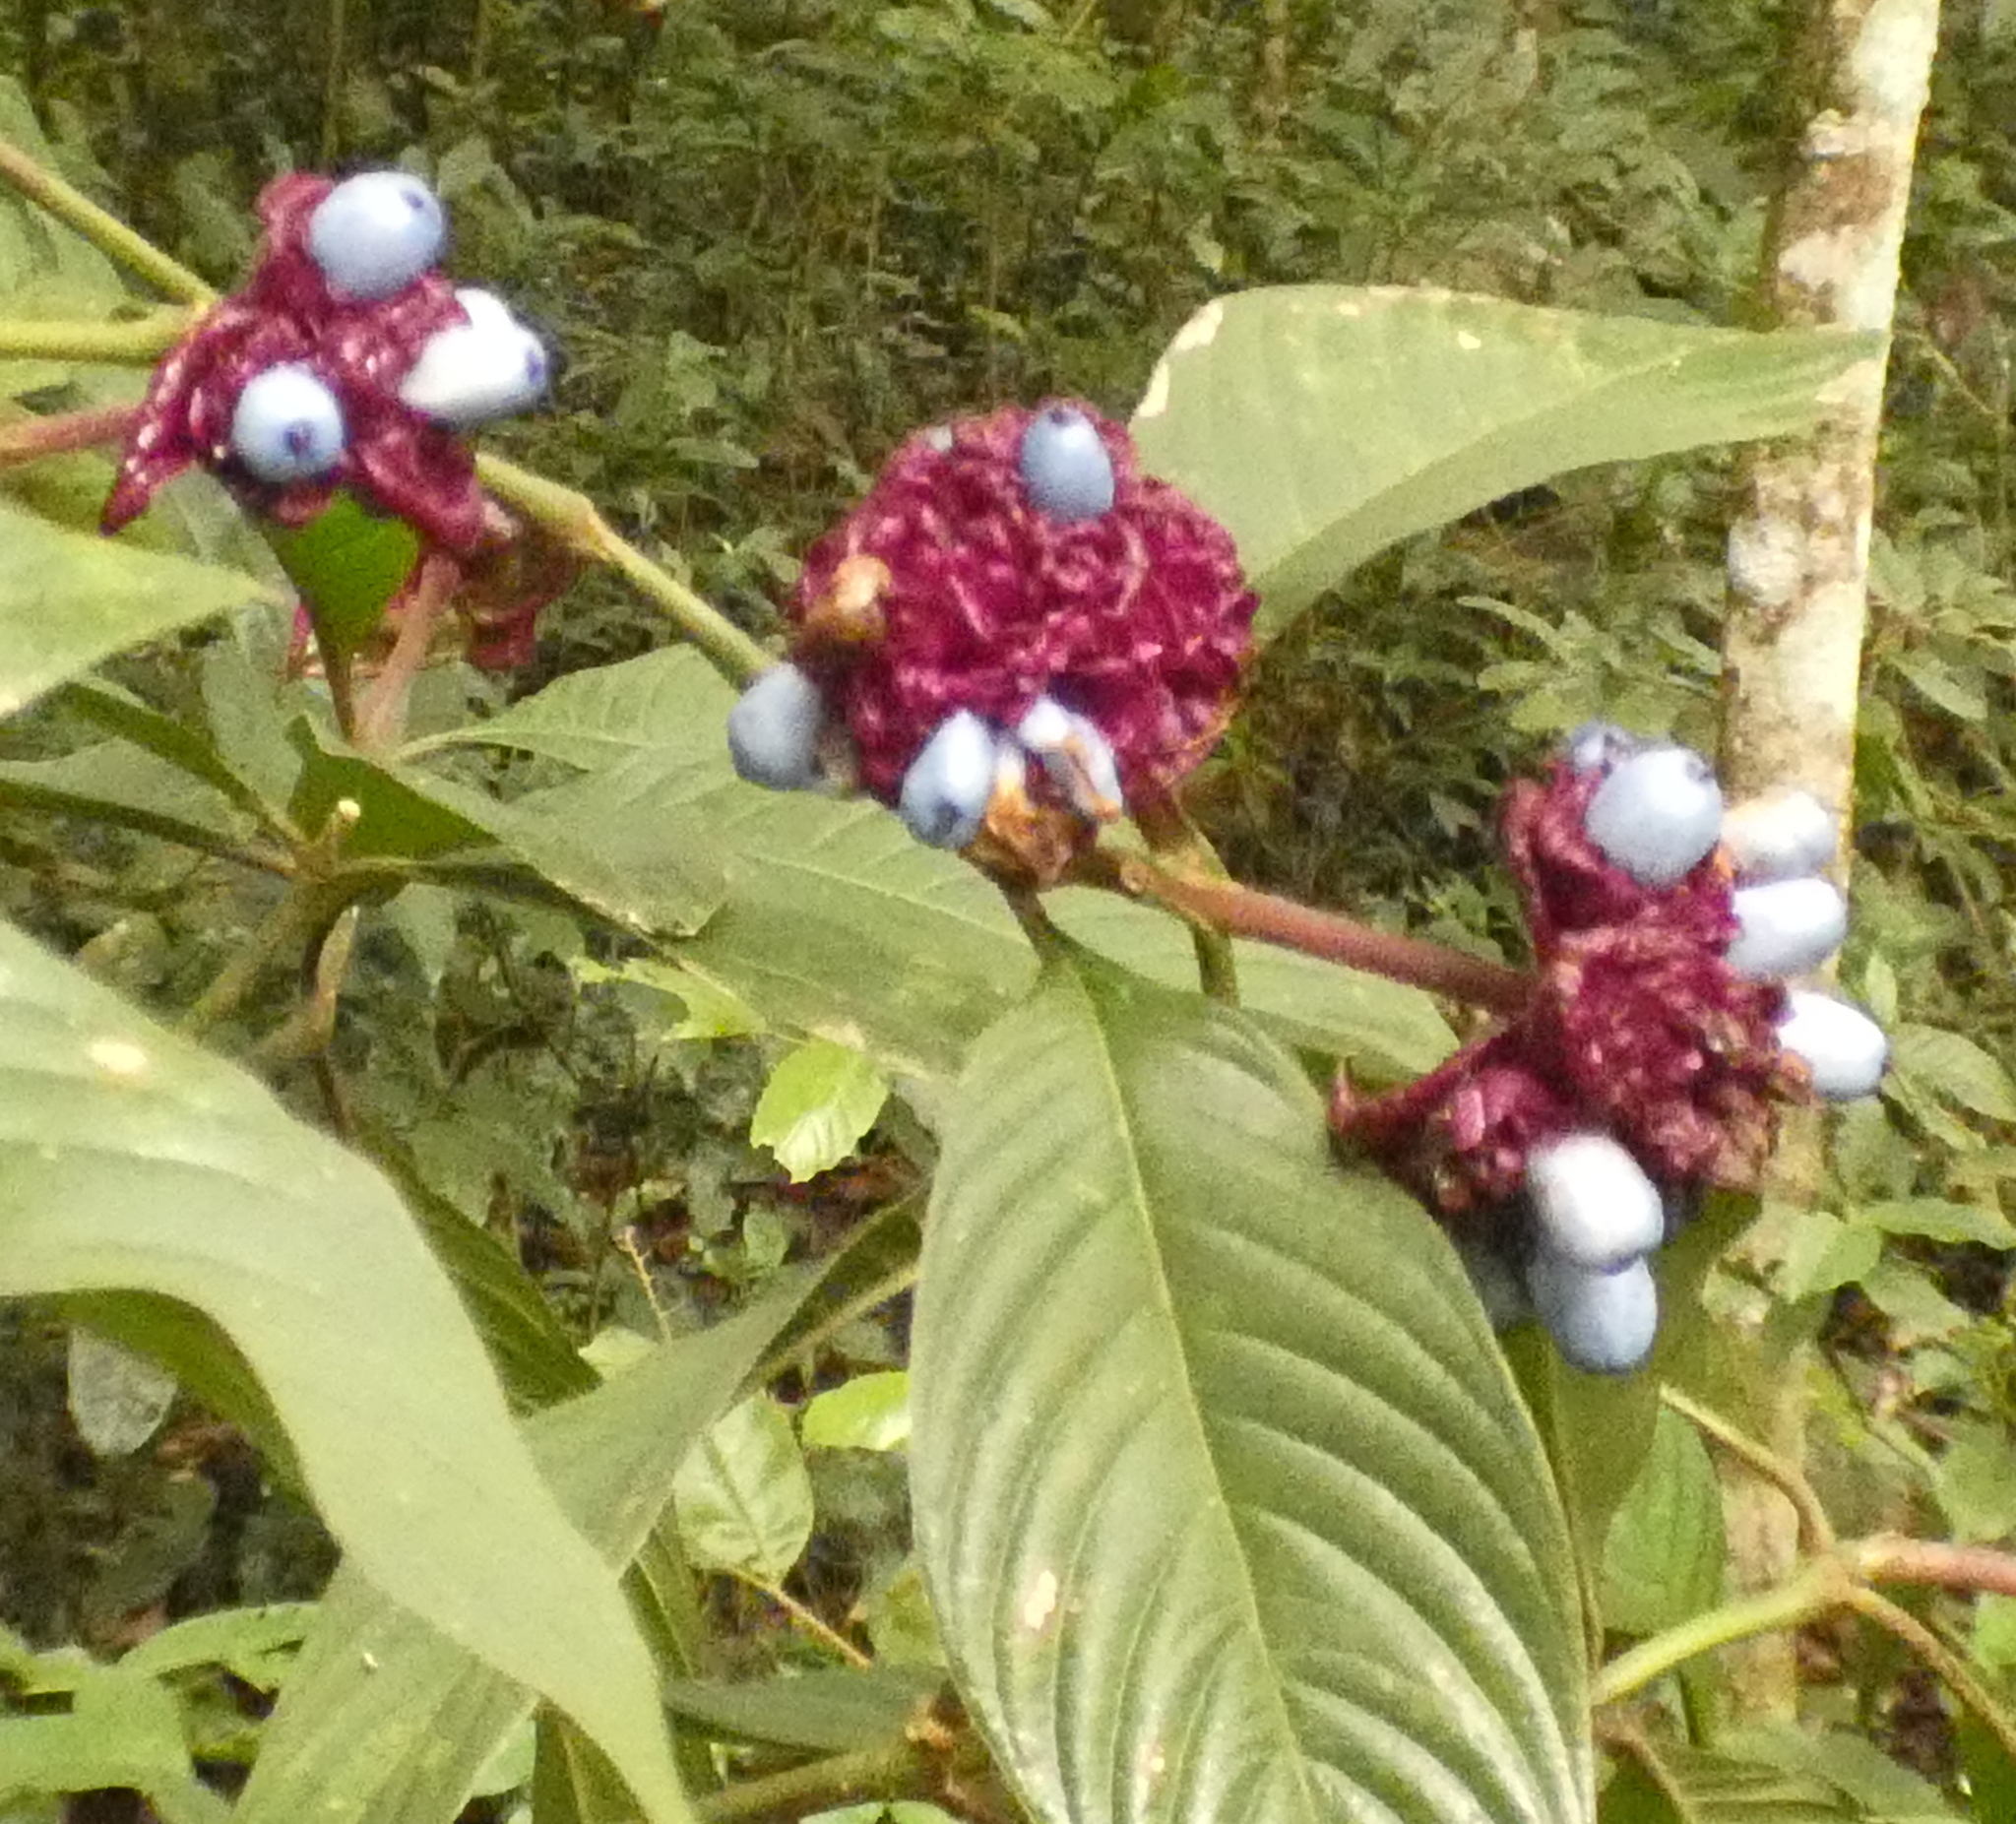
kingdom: Plantae
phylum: Tracheophyta
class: Magnoliopsida
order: Gentianales
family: Rubiaceae
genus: Palicourea
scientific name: Palicourea bracteocardia
